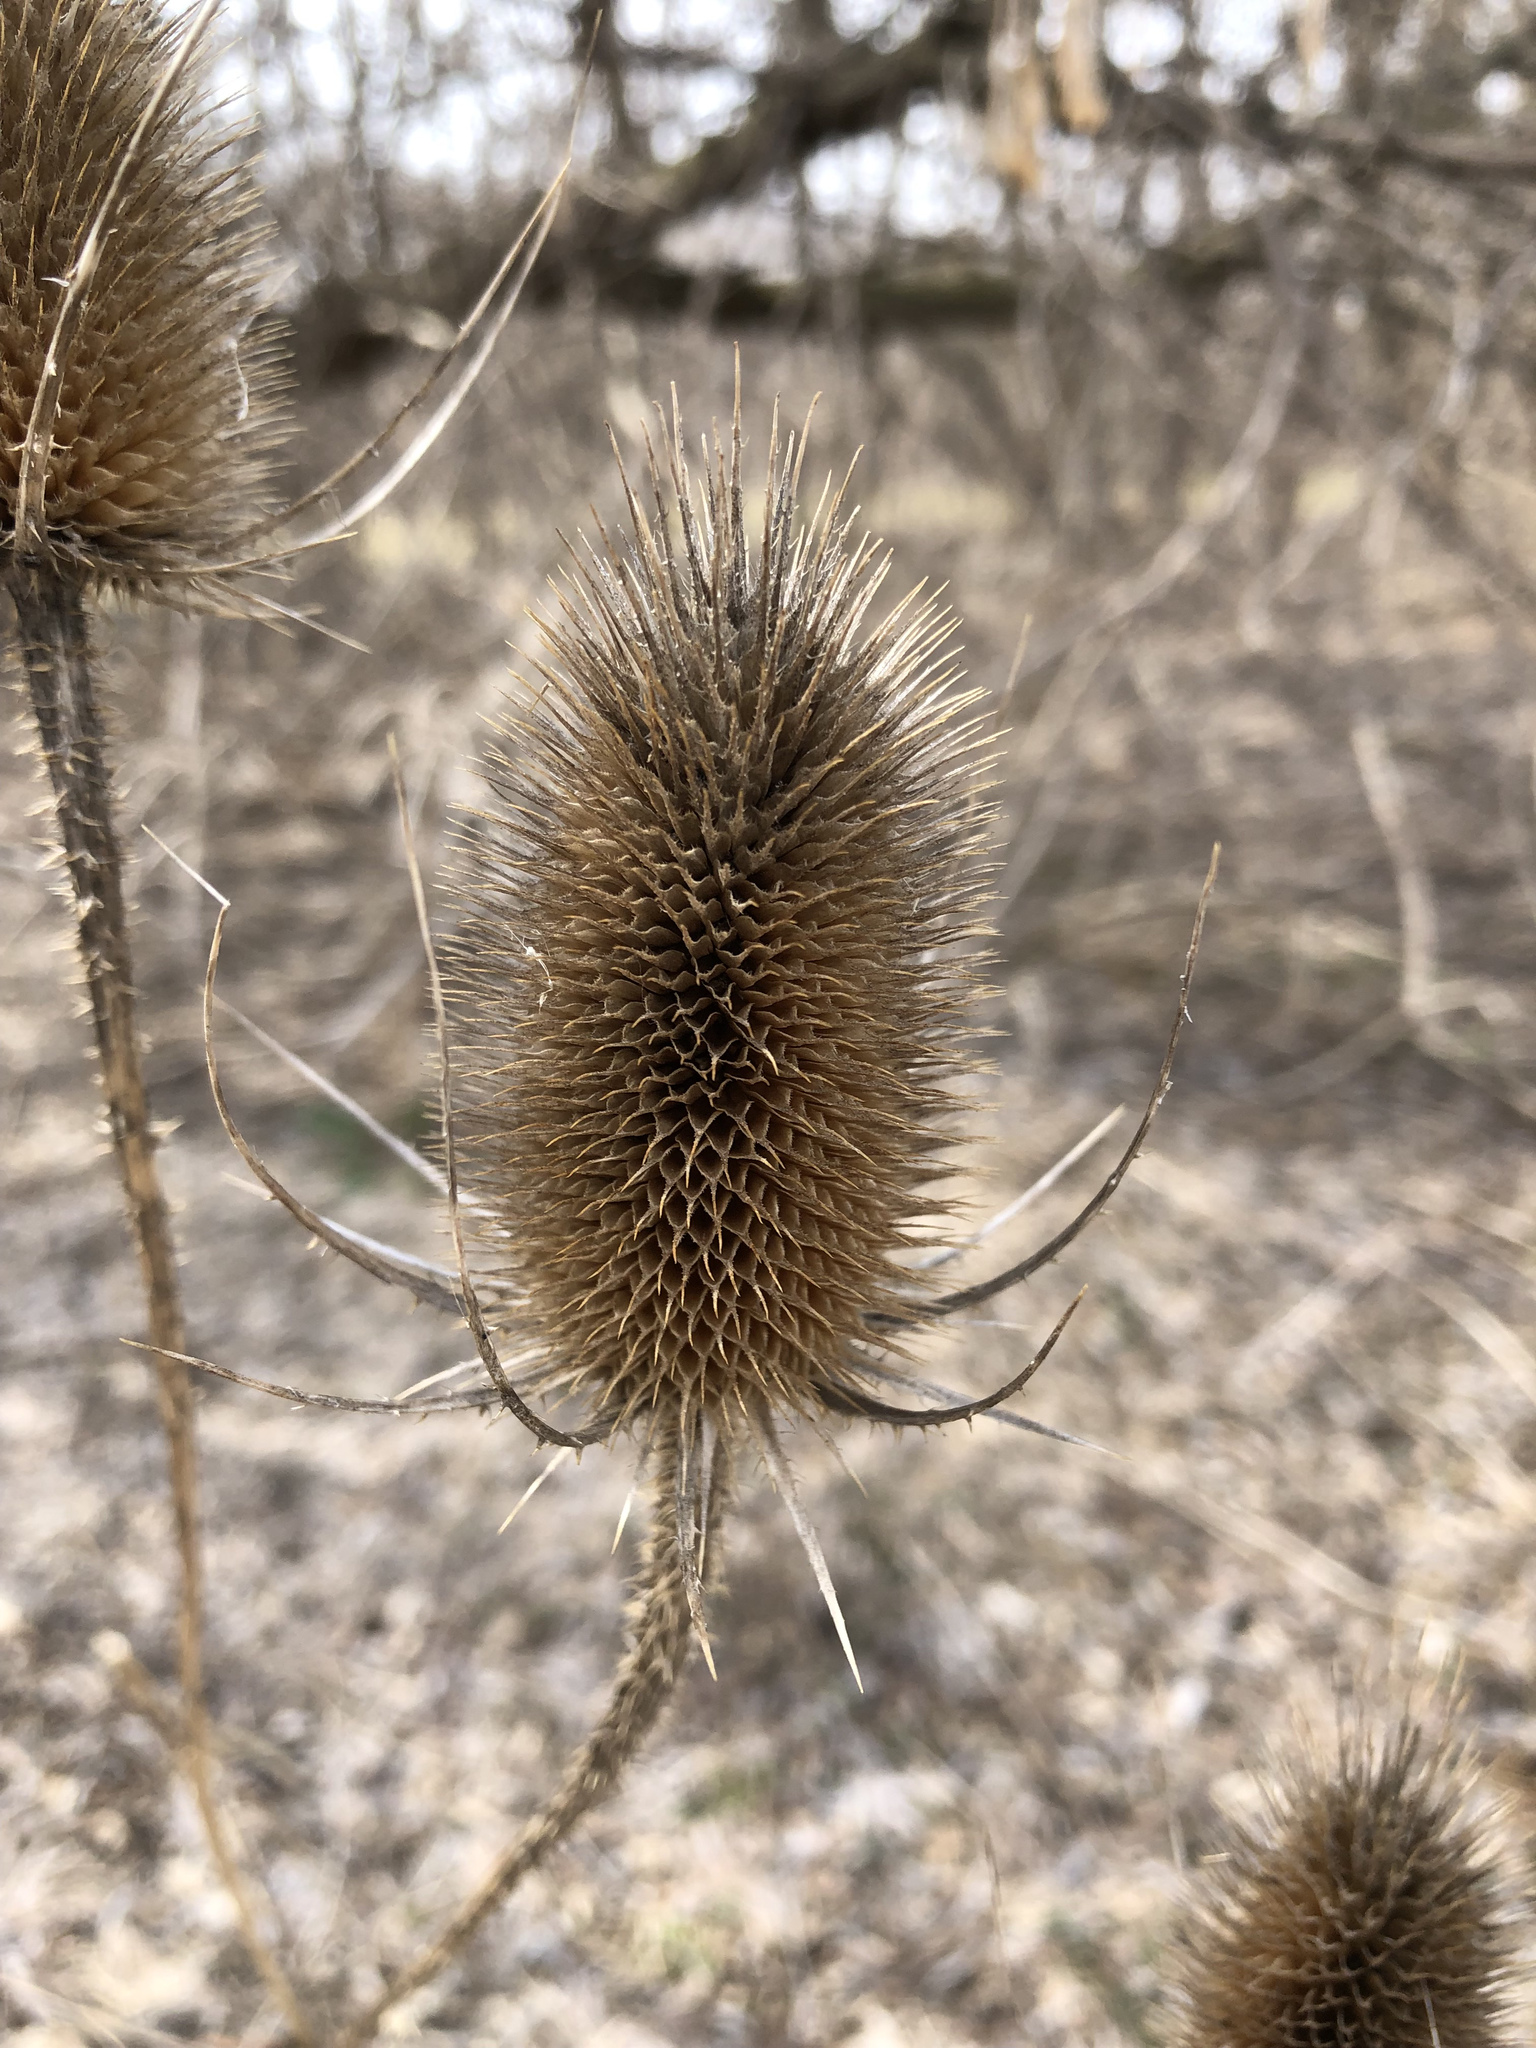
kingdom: Plantae
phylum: Tracheophyta
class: Magnoliopsida
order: Dipsacales
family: Caprifoliaceae
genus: Dipsacus
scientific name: Dipsacus fullonum
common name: Teasel
